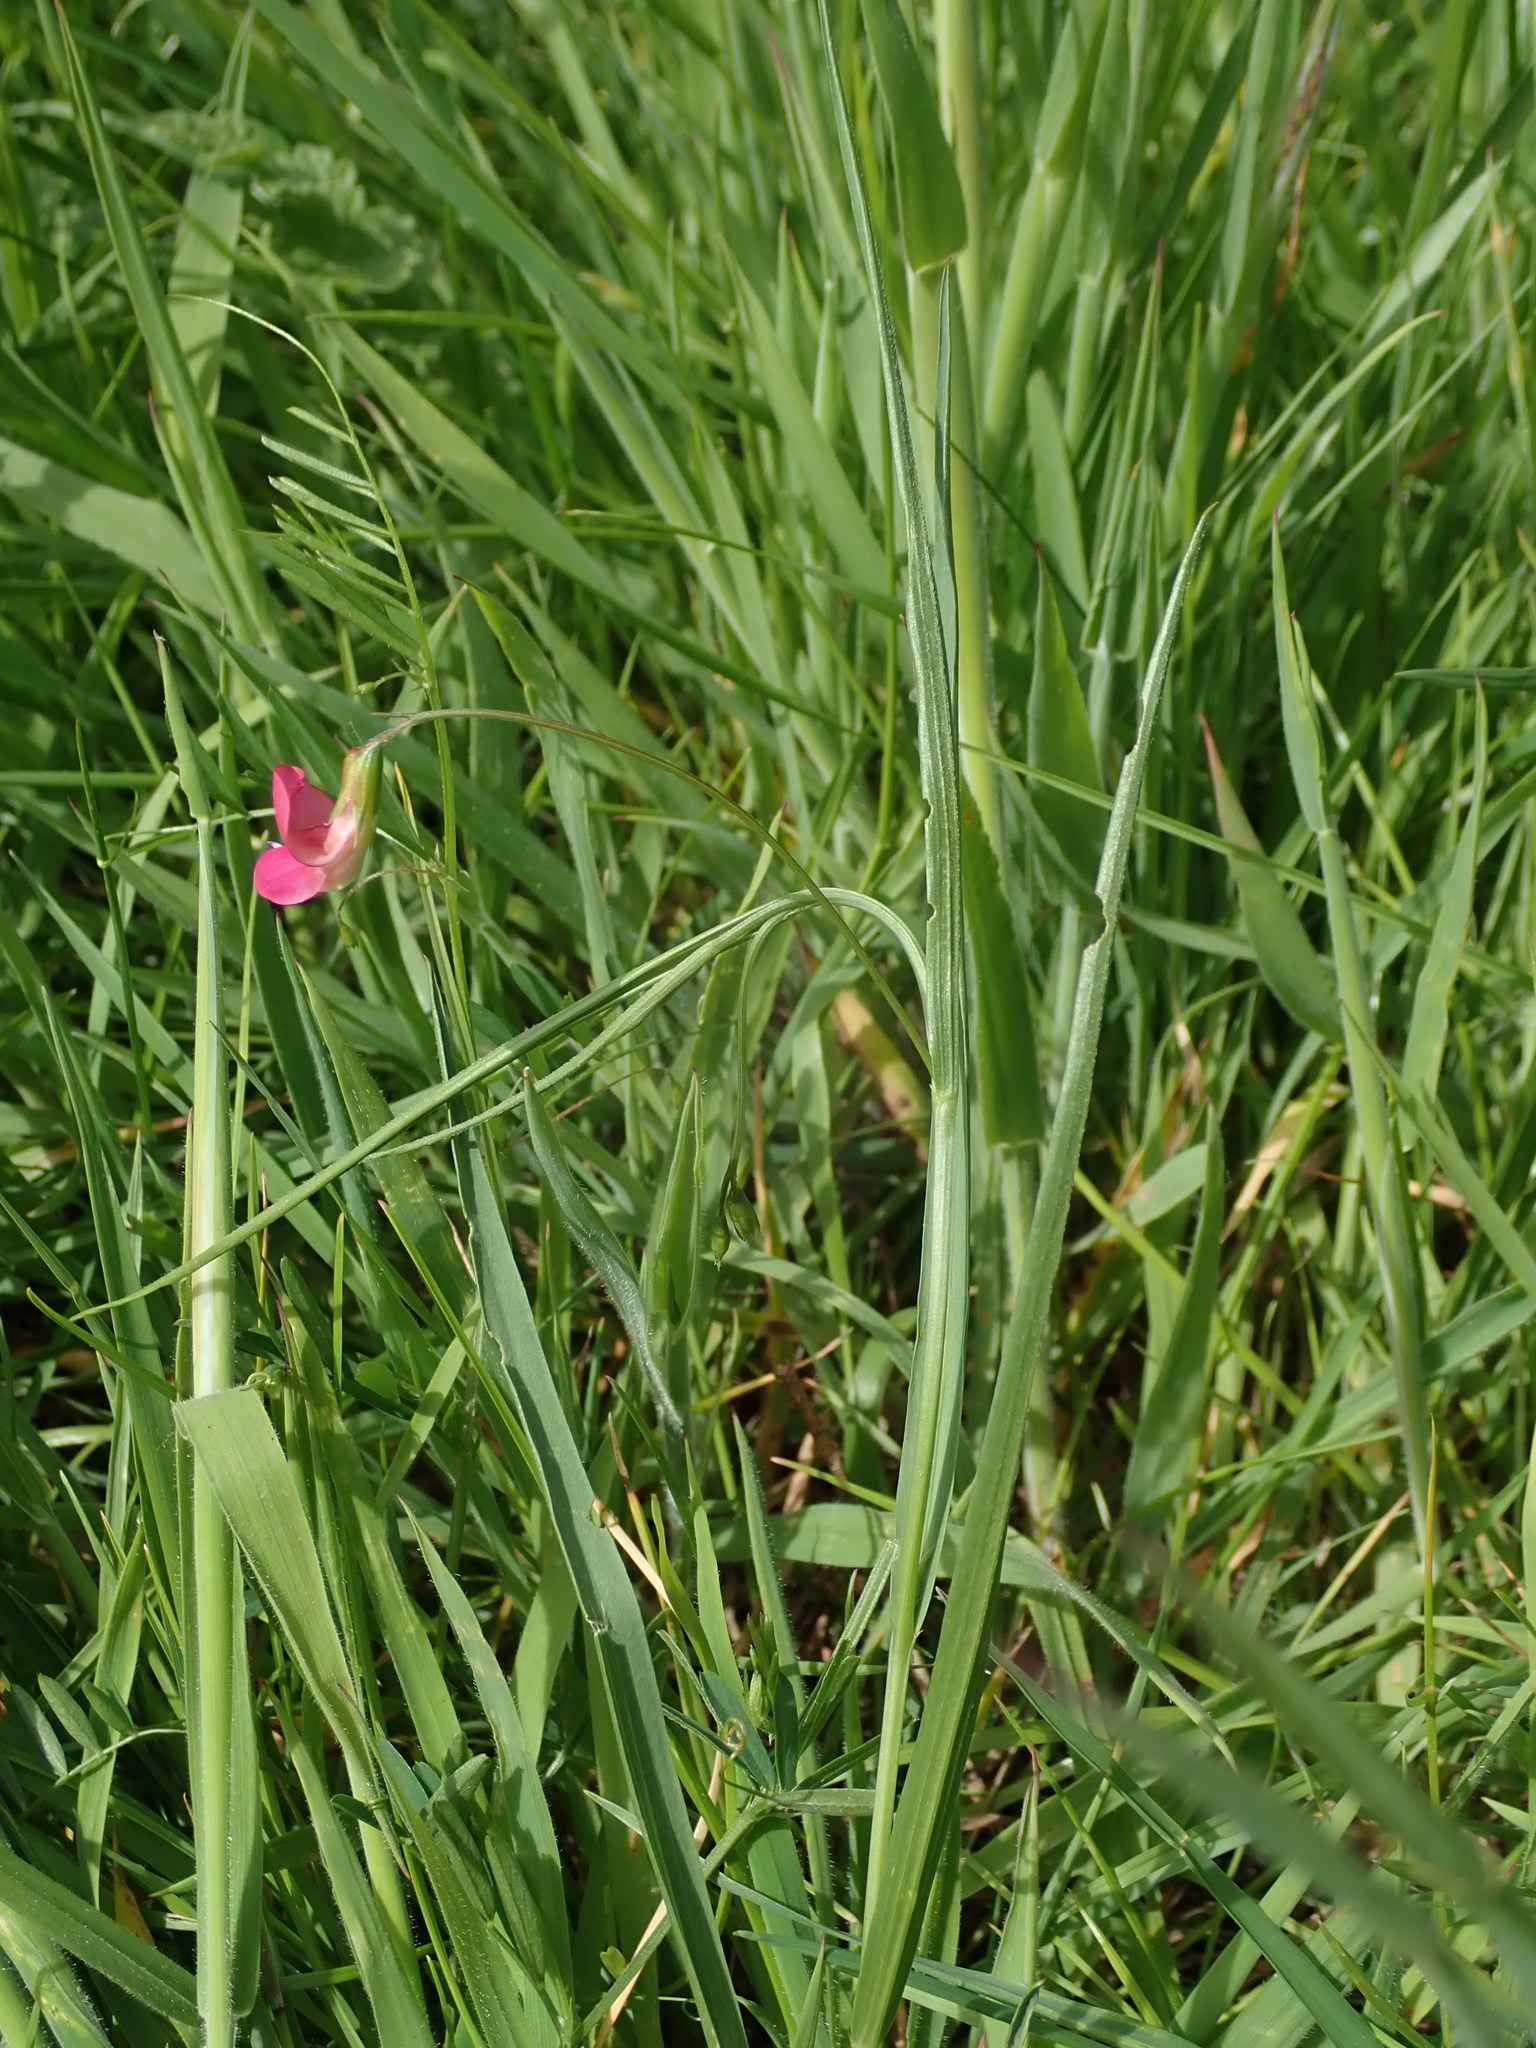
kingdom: Plantae
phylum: Tracheophyta
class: Magnoliopsida
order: Fabales
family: Fabaceae
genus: Lathyrus
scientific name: Lathyrus nissolia
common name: Grass vetchling
